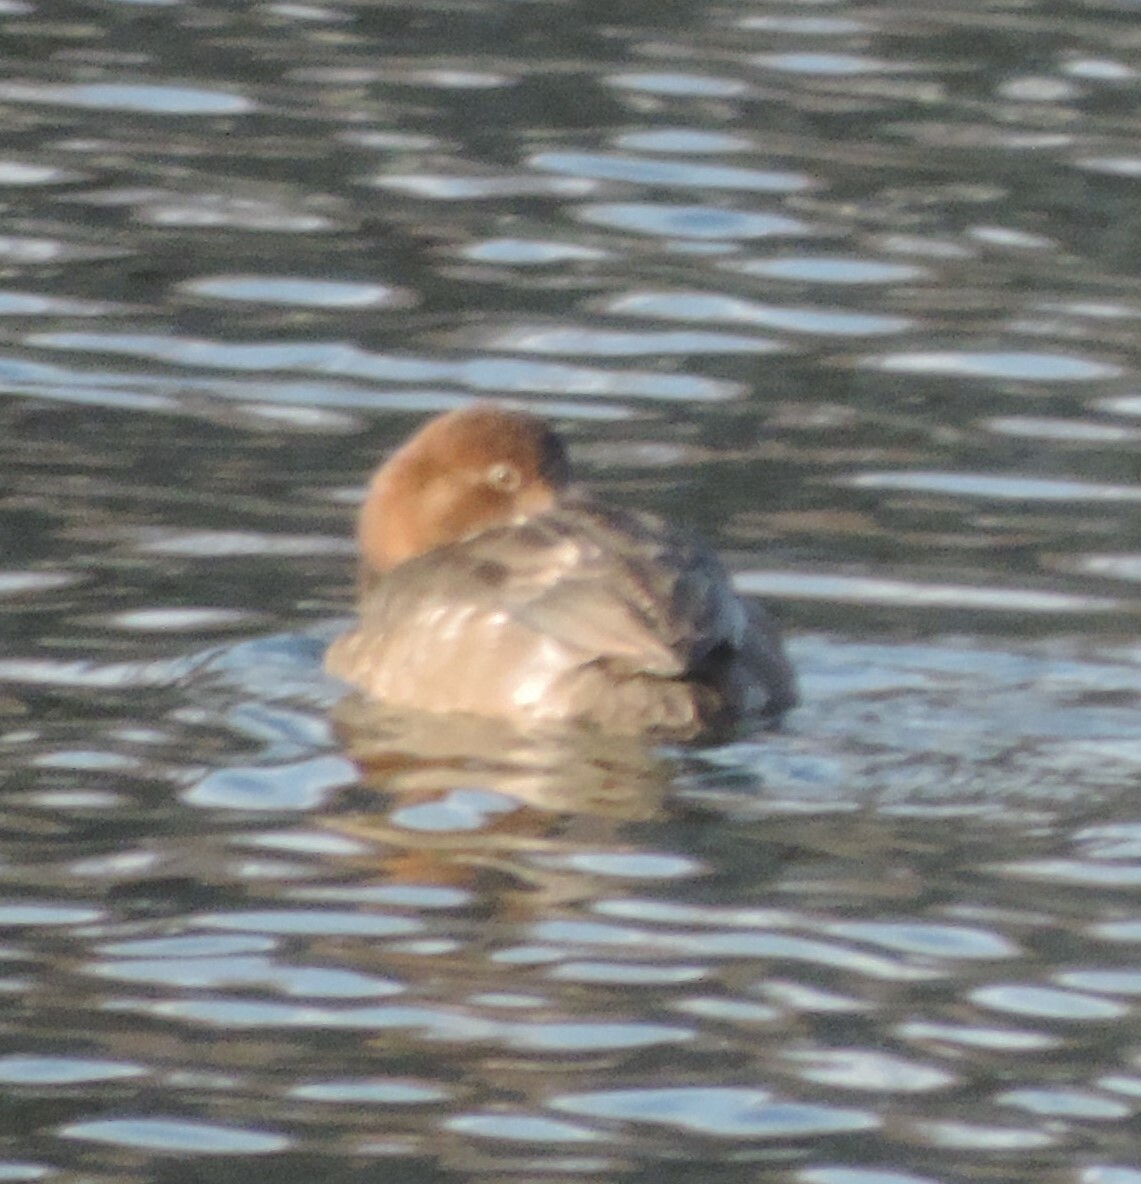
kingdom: Animalia
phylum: Chordata
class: Aves
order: Anseriformes
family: Anatidae
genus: Aythya
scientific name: Aythya americana
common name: Redhead
